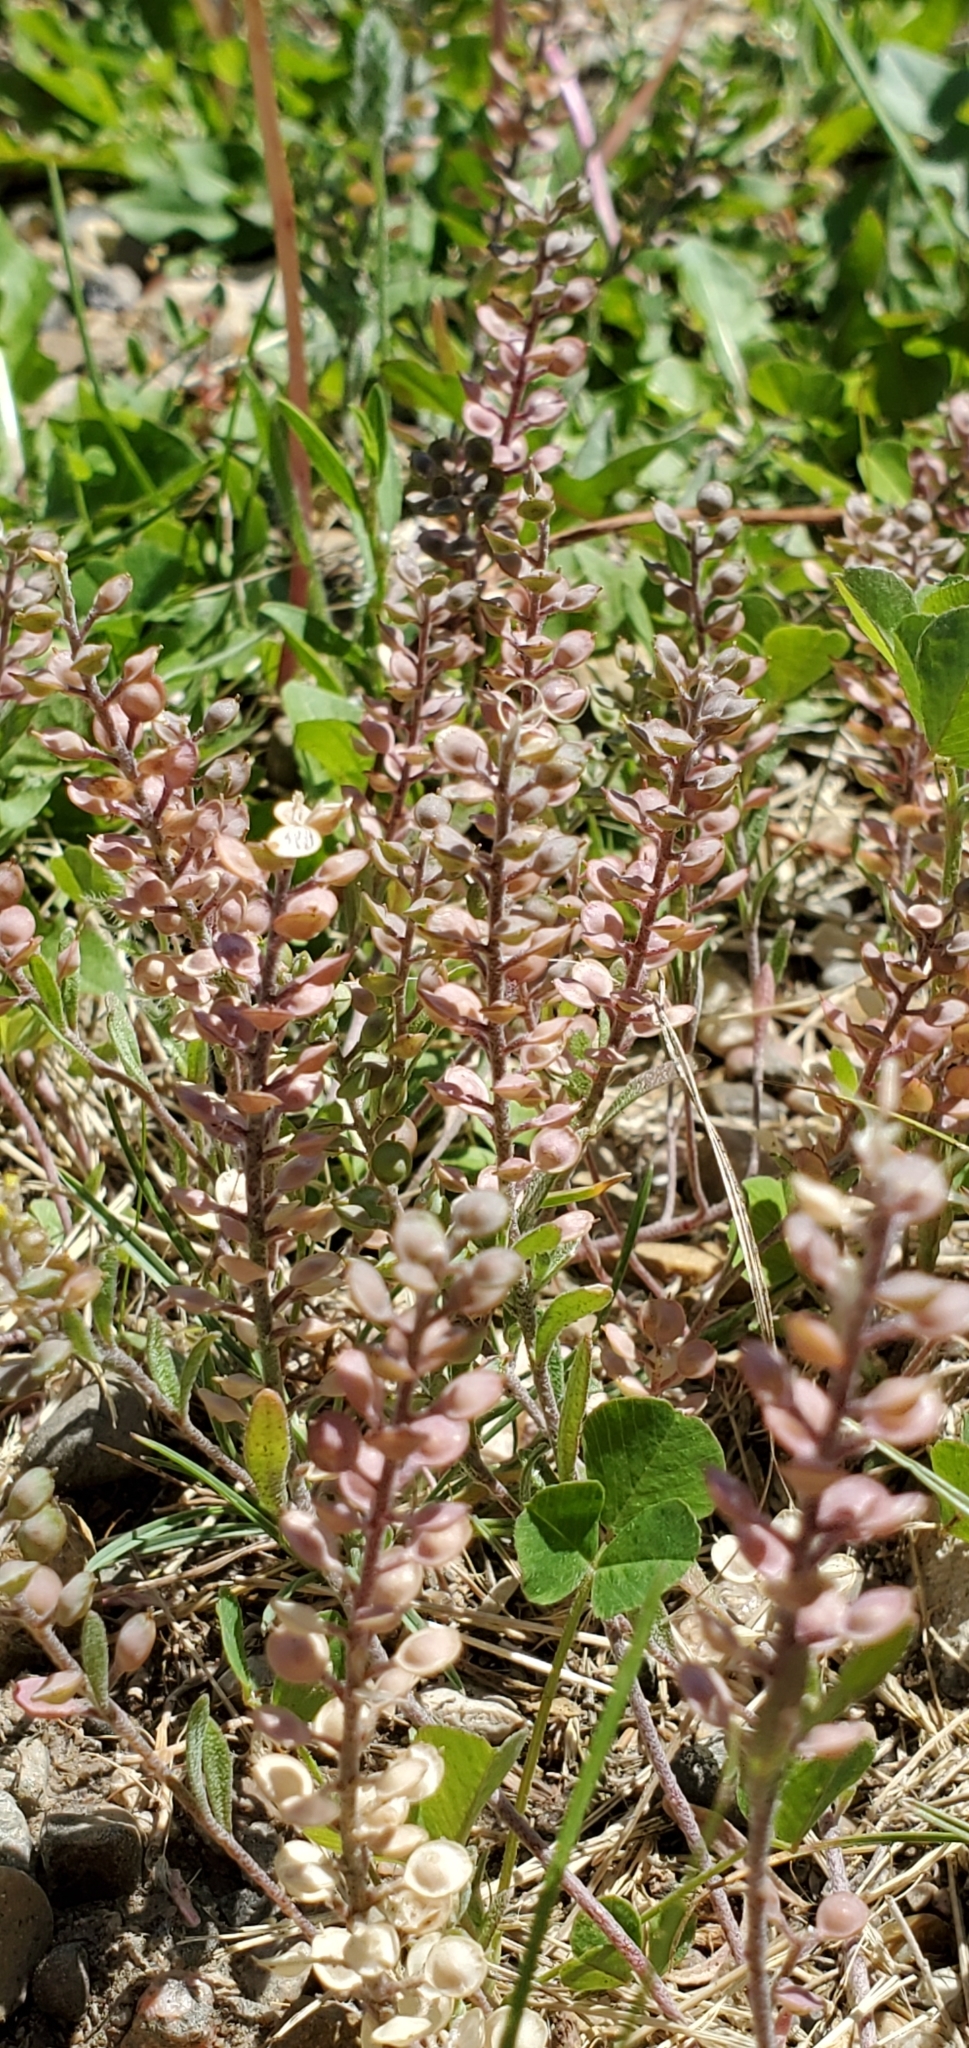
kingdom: Plantae
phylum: Tracheophyta
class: Magnoliopsida
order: Brassicales
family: Brassicaceae
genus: Alyssum
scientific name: Alyssum turkestanicum
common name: Desert alyssum
